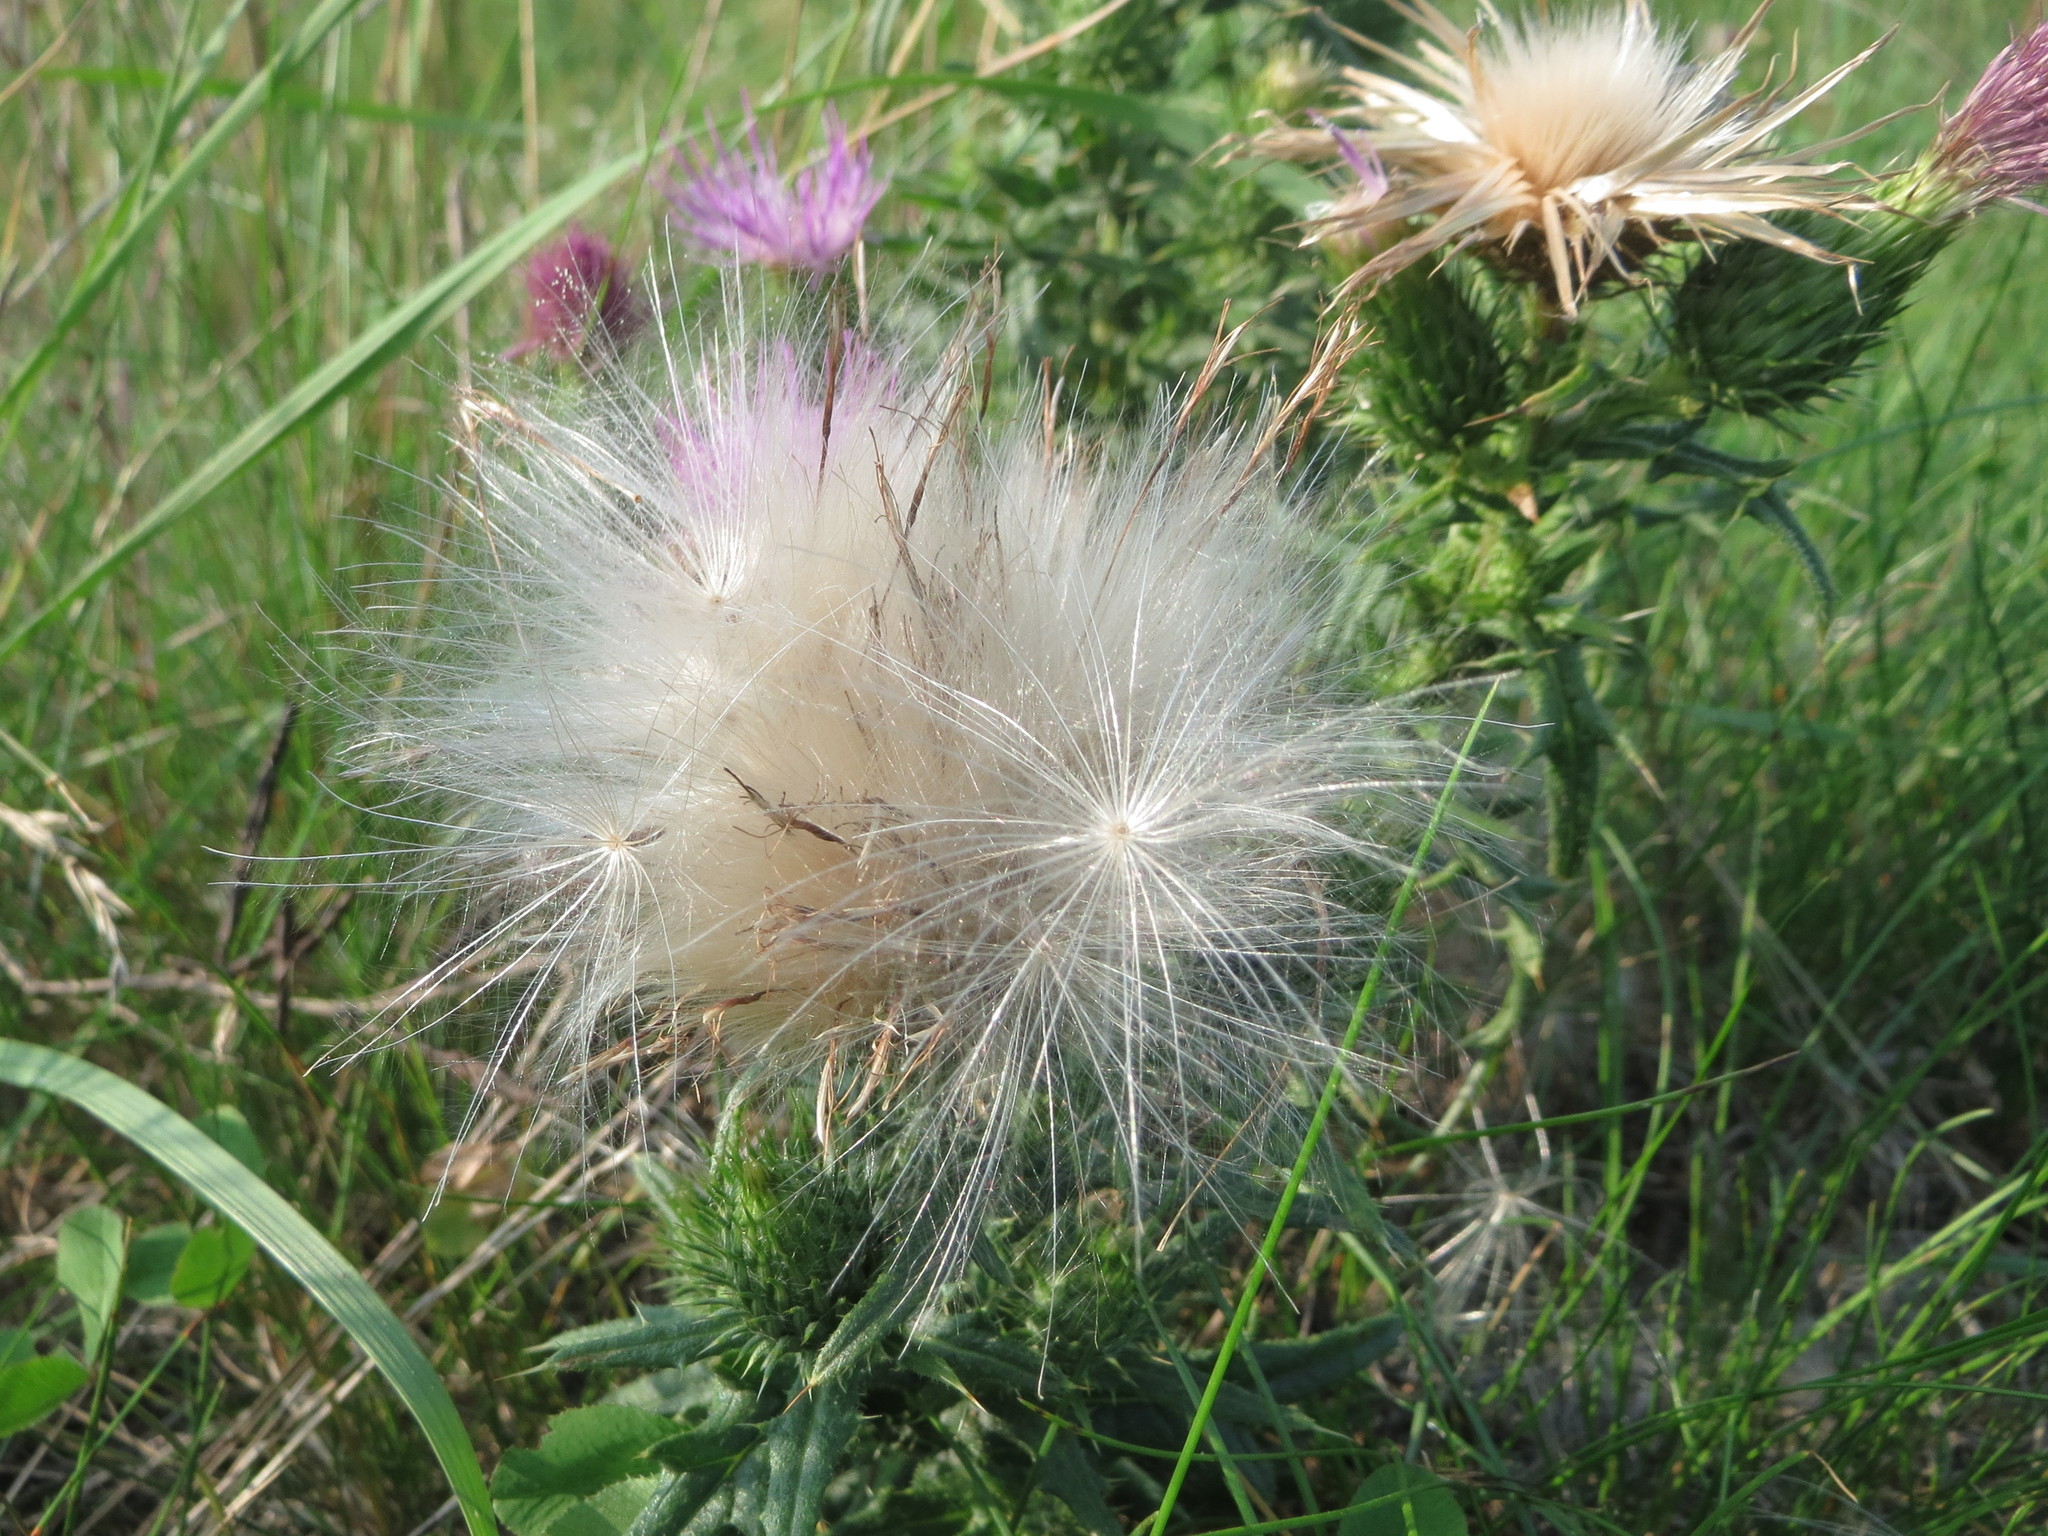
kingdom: Plantae
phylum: Tracheophyta
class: Magnoliopsida
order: Asterales
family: Asteraceae
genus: Cirsium
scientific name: Cirsium vulgare
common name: Bull thistle
